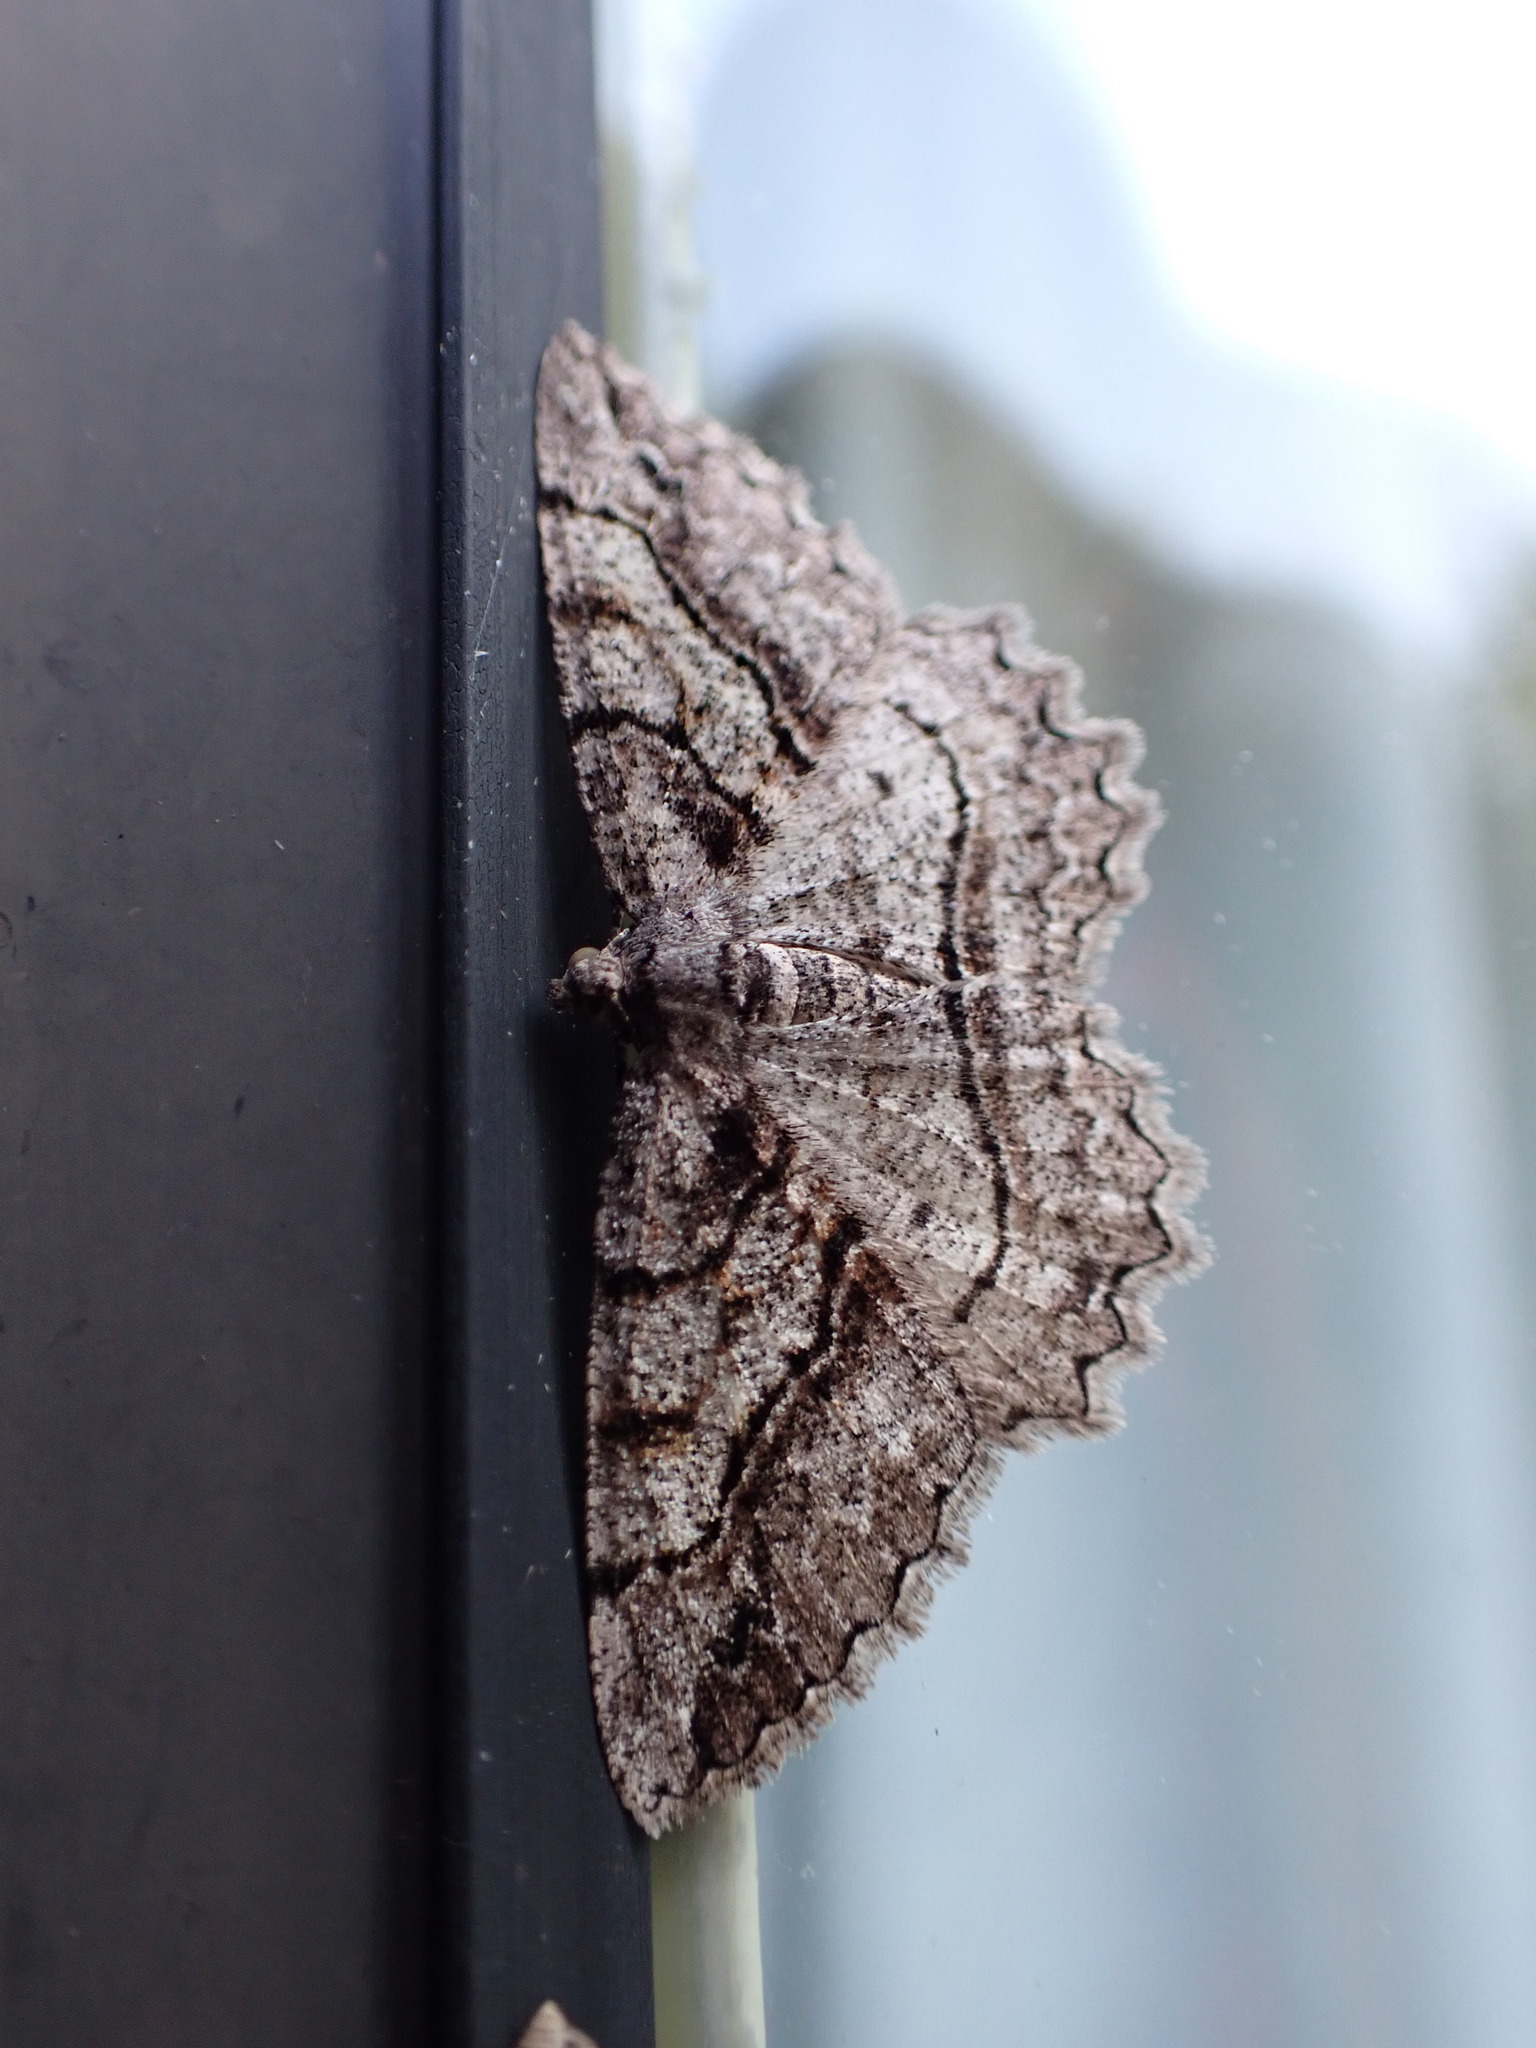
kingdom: Animalia
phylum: Arthropoda
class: Insecta
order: Lepidoptera
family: Geometridae
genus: Neoalcis
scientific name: Neoalcis californiaria
